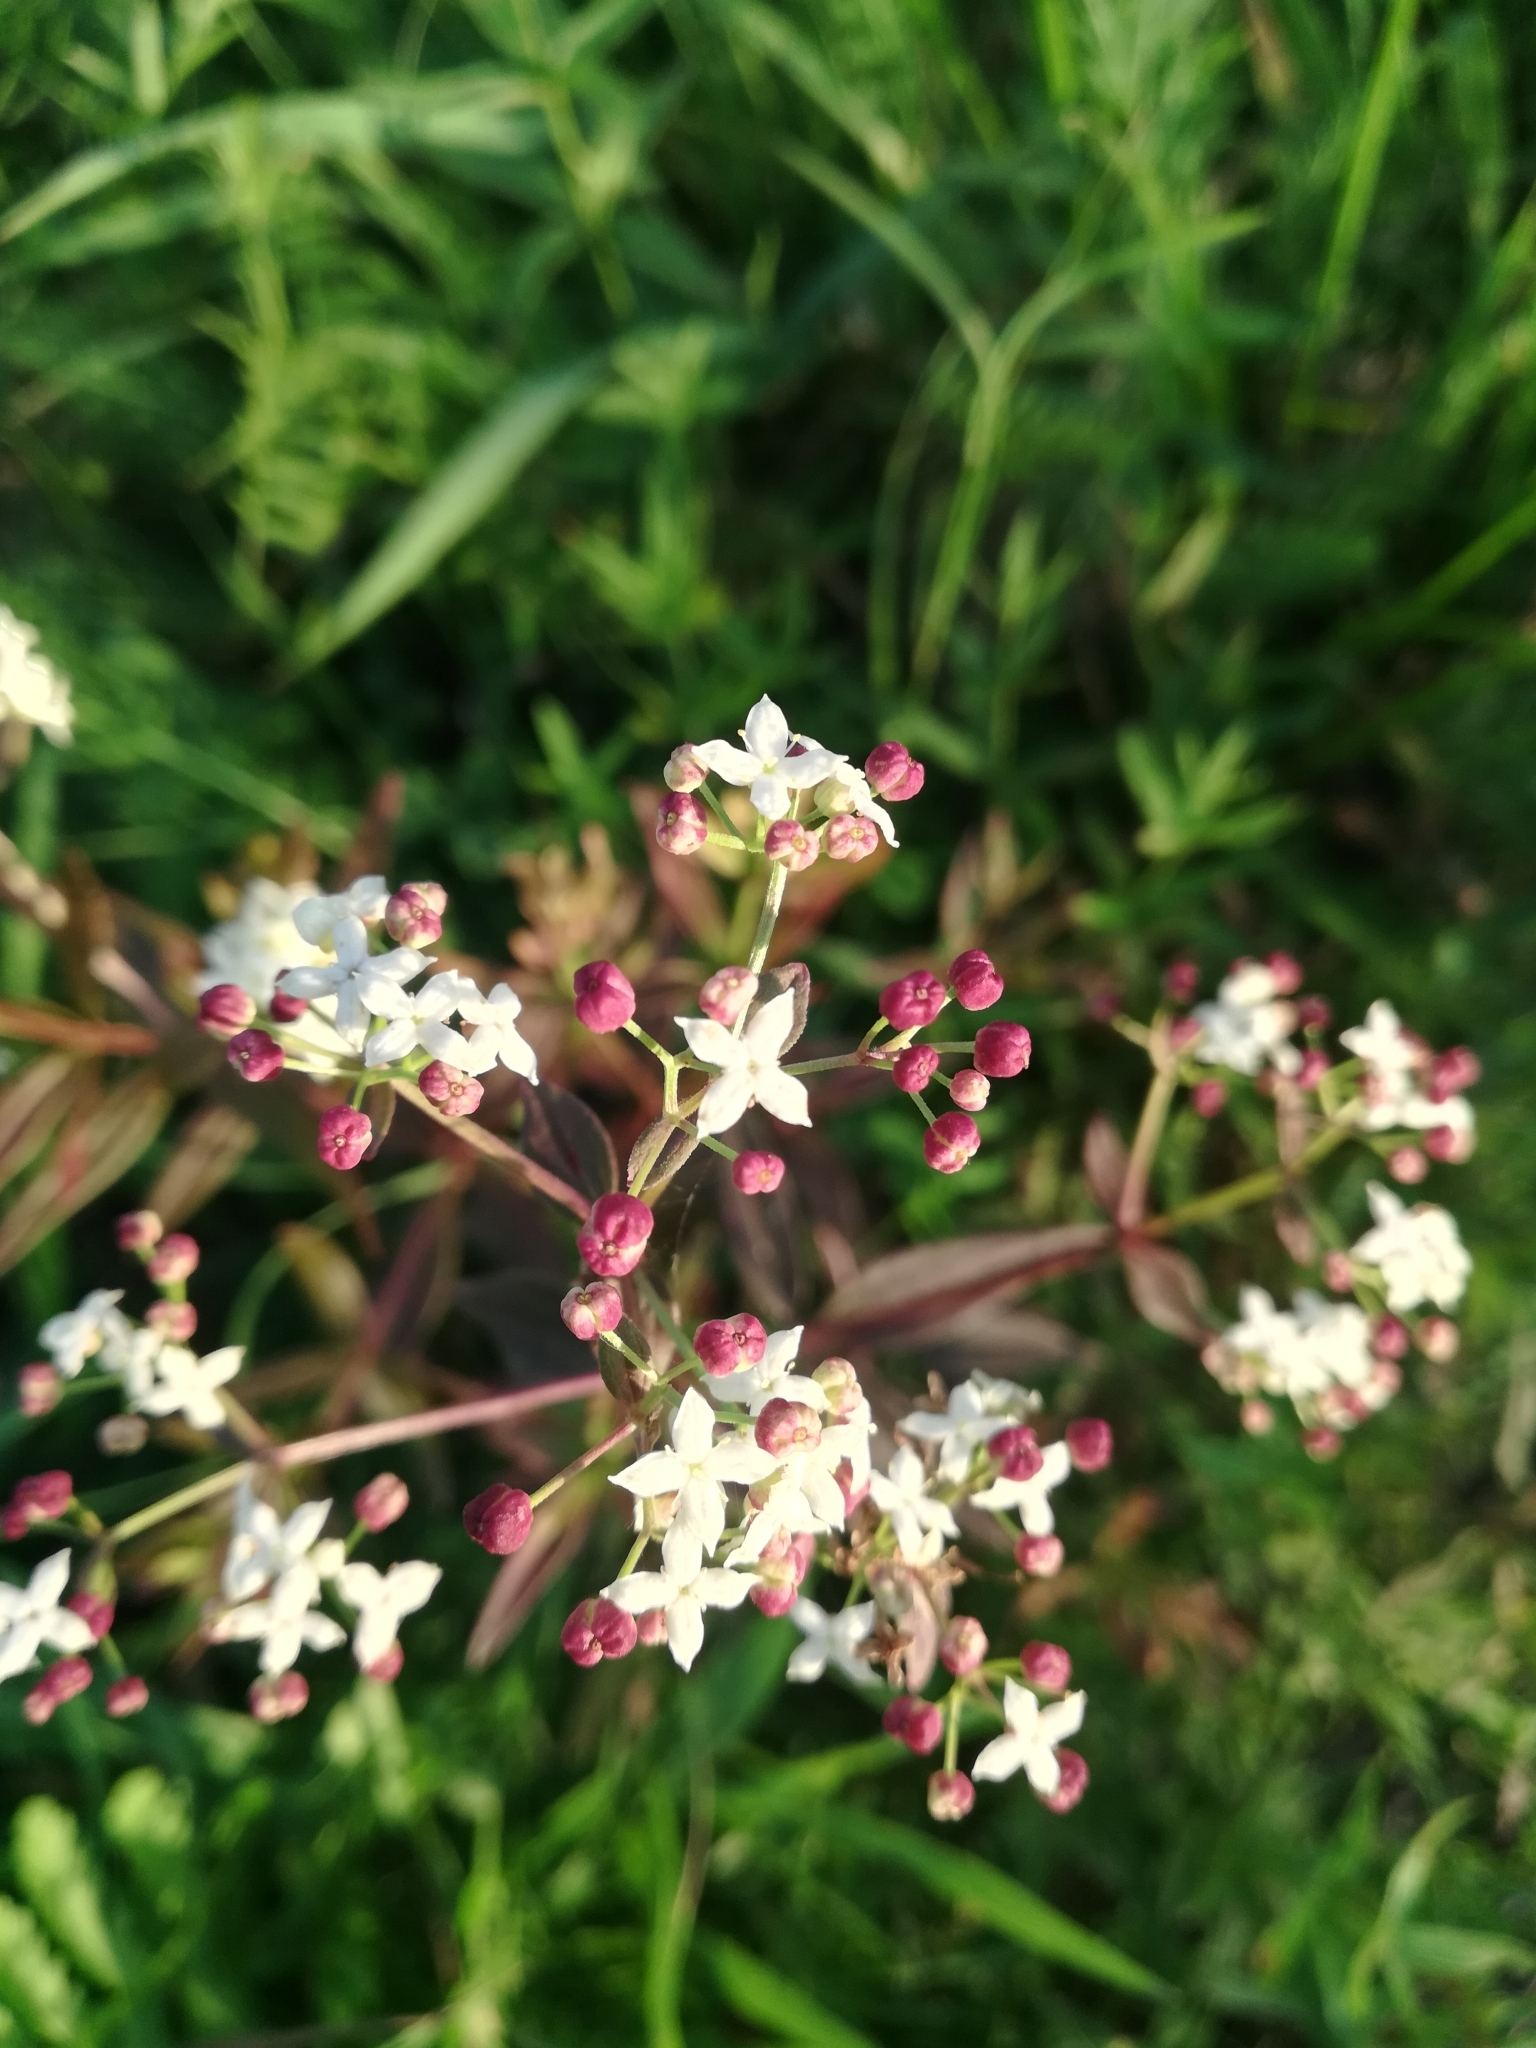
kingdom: Plantae
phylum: Tracheophyta
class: Magnoliopsida
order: Gentianales
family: Rubiaceae
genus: Galium
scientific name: Galium rubioides
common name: European bedstraw
